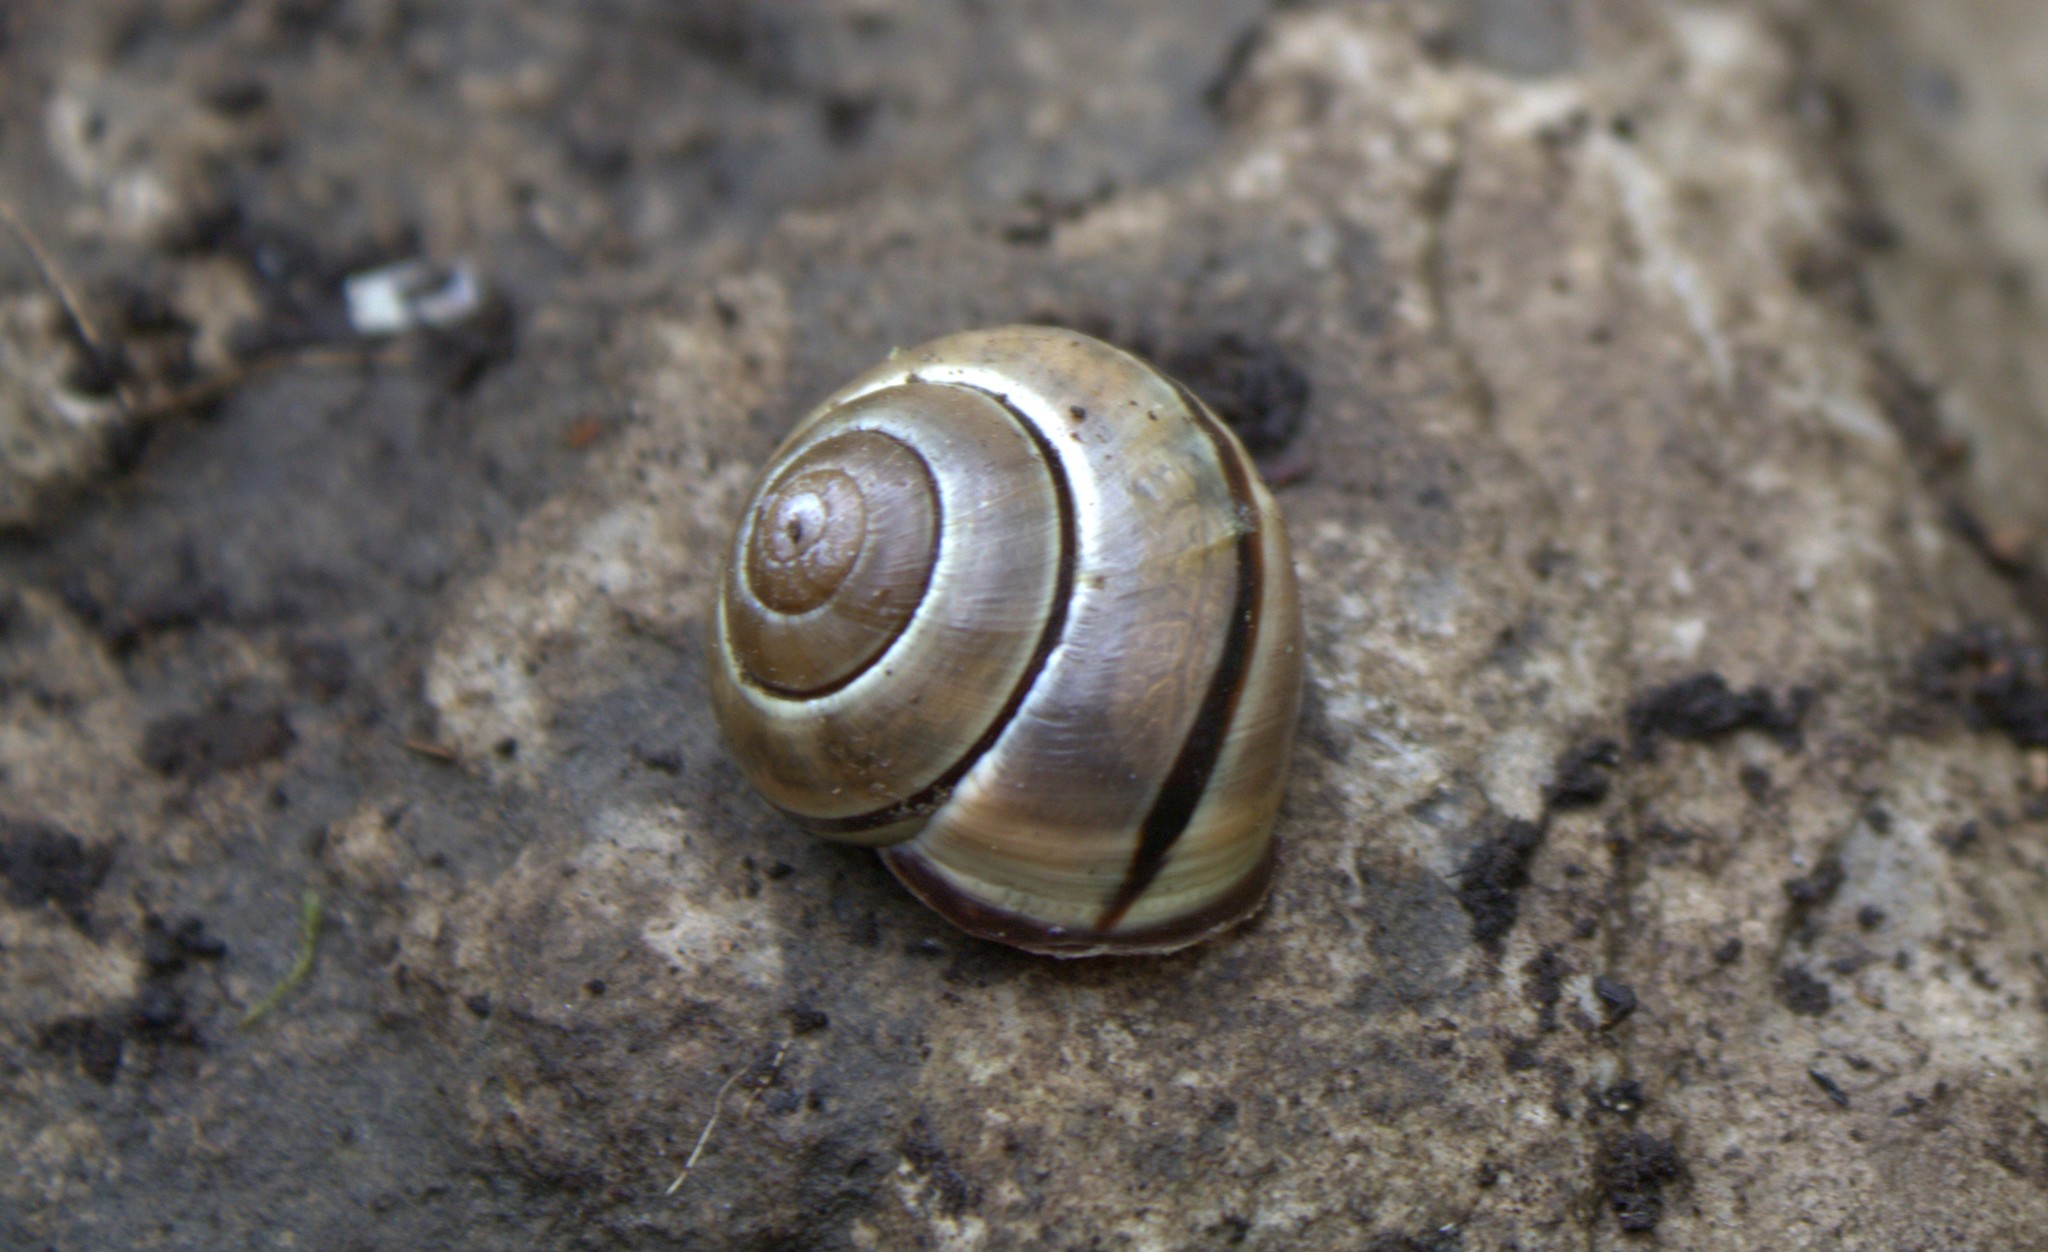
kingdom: Animalia
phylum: Mollusca
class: Gastropoda
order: Stylommatophora
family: Helicidae
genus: Cepaea
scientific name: Cepaea nemoralis
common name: Grovesnail
